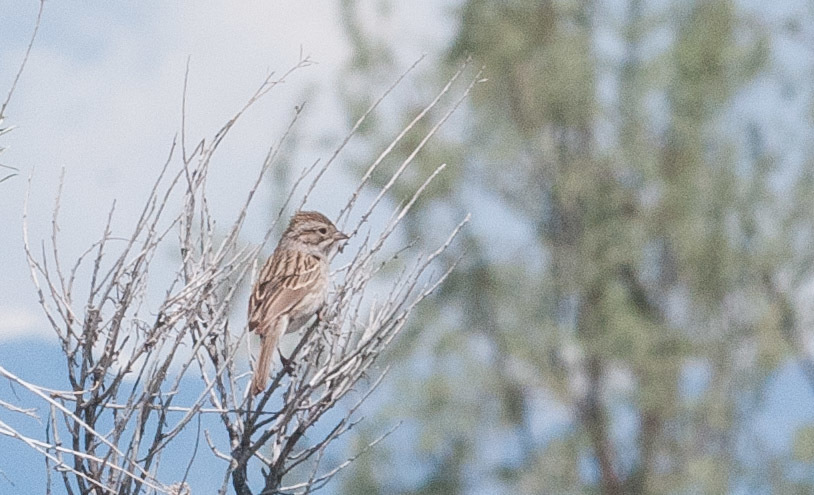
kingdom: Animalia
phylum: Chordata
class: Aves
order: Passeriformes
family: Passerellidae
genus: Spizella
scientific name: Spizella breweri
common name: Brewer's sparrow
